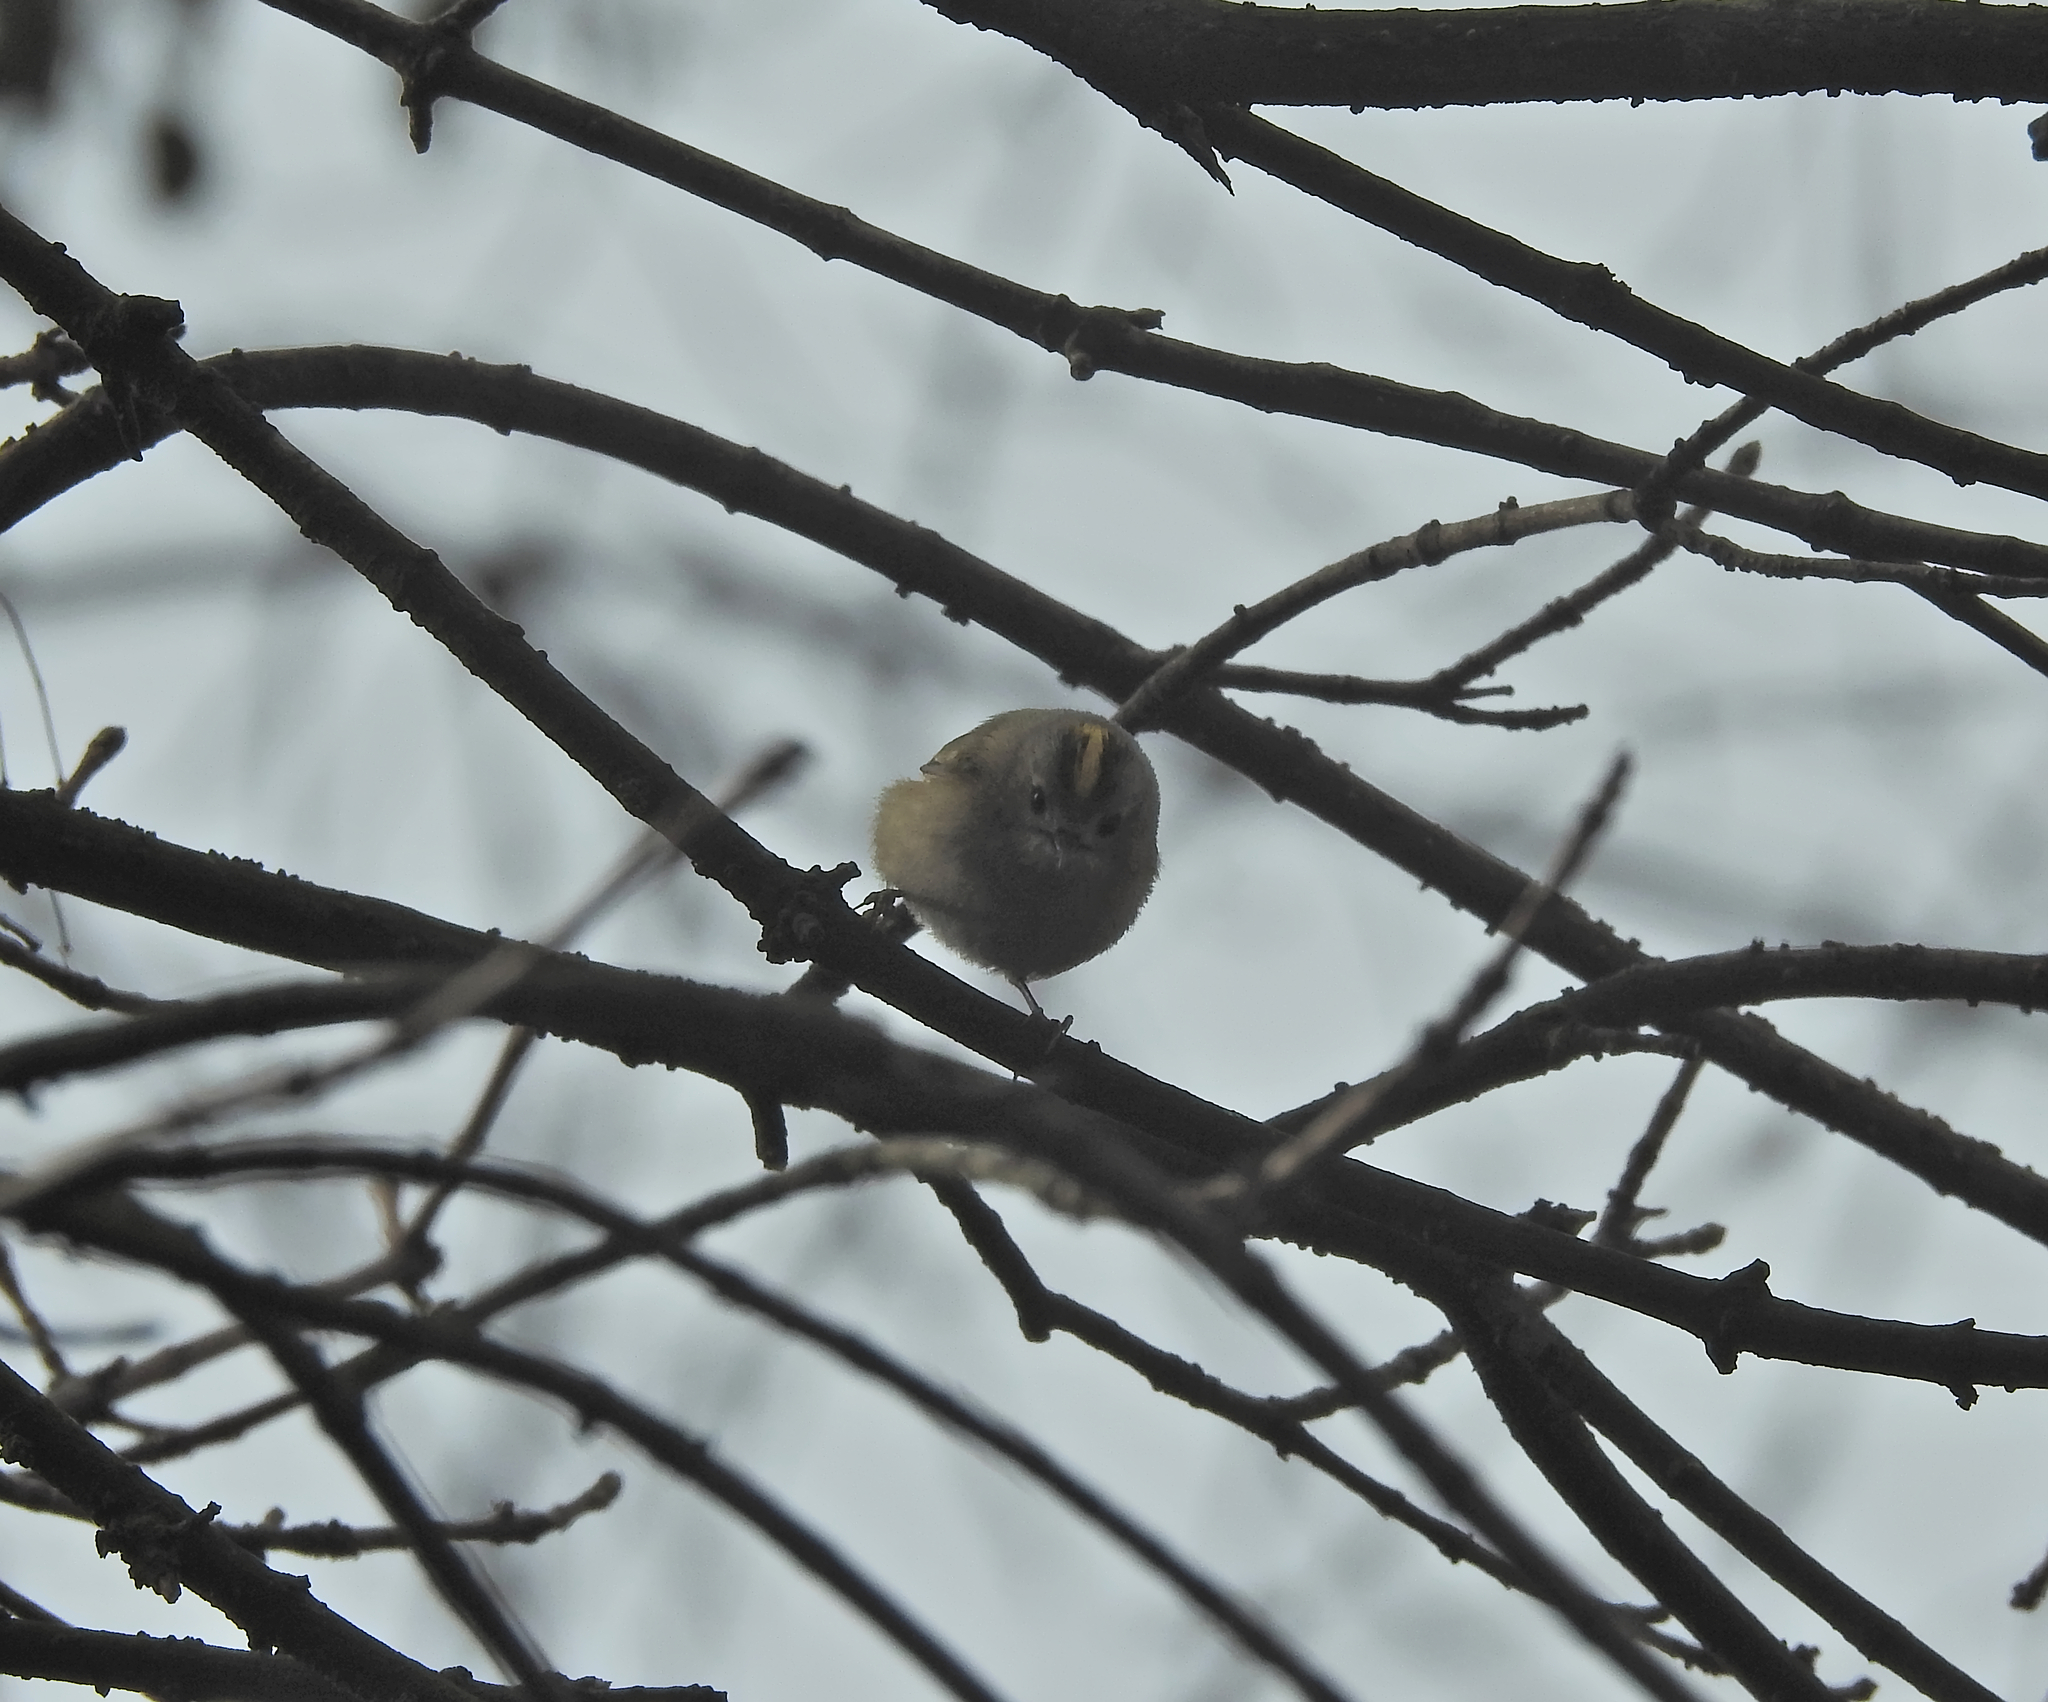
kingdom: Animalia
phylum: Chordata
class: Aves
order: Passeriformes
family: Regulidae
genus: Regulus
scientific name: Regulus regulus
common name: Goldcrest
